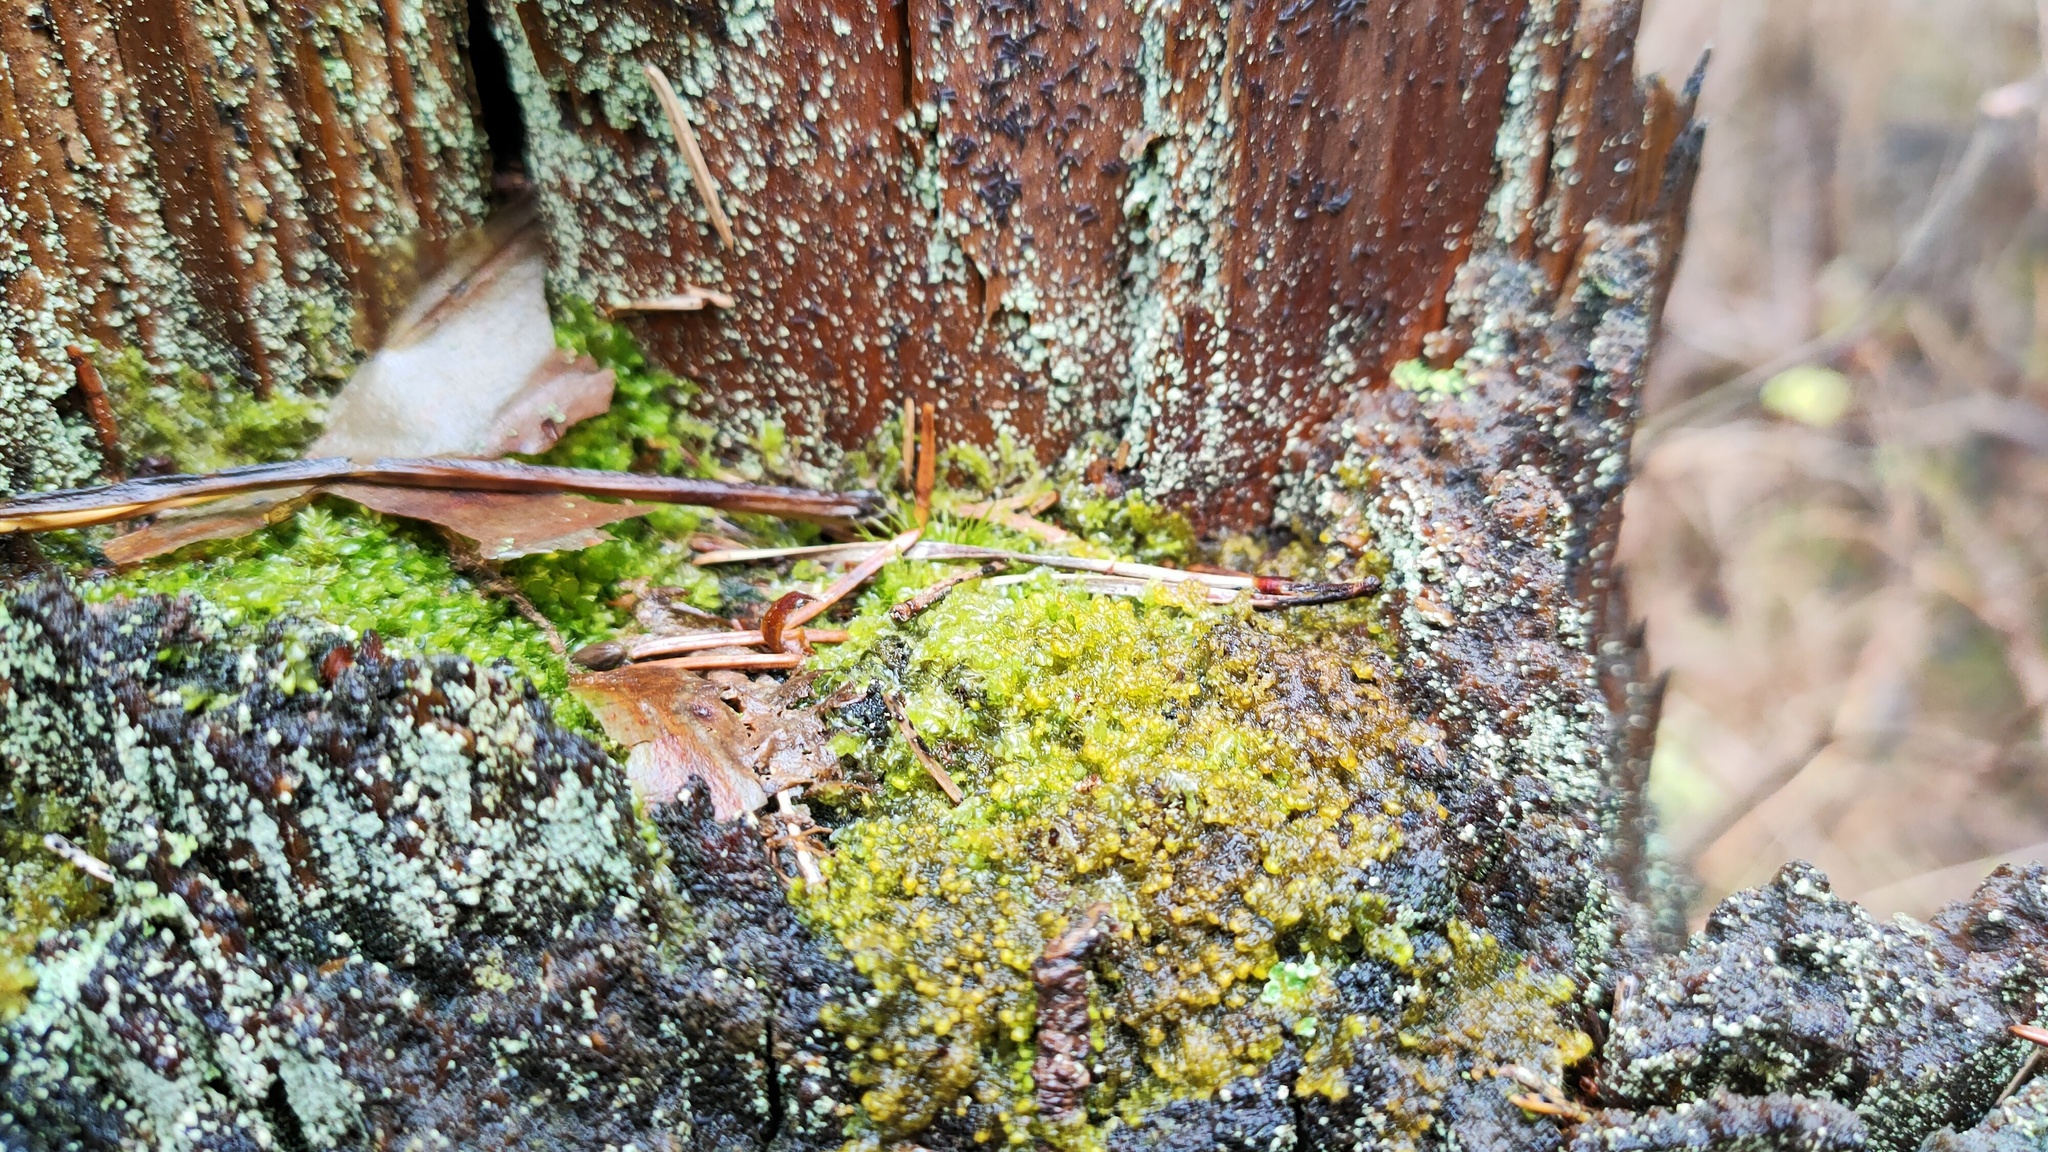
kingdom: Plantae
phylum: Marchantiophyta
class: Jungermanniopsida
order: Ptilidiales
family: Ptilidiaceae
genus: Ptilidium
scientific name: Ptilidium pulcherrimum
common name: Tree fringewort
